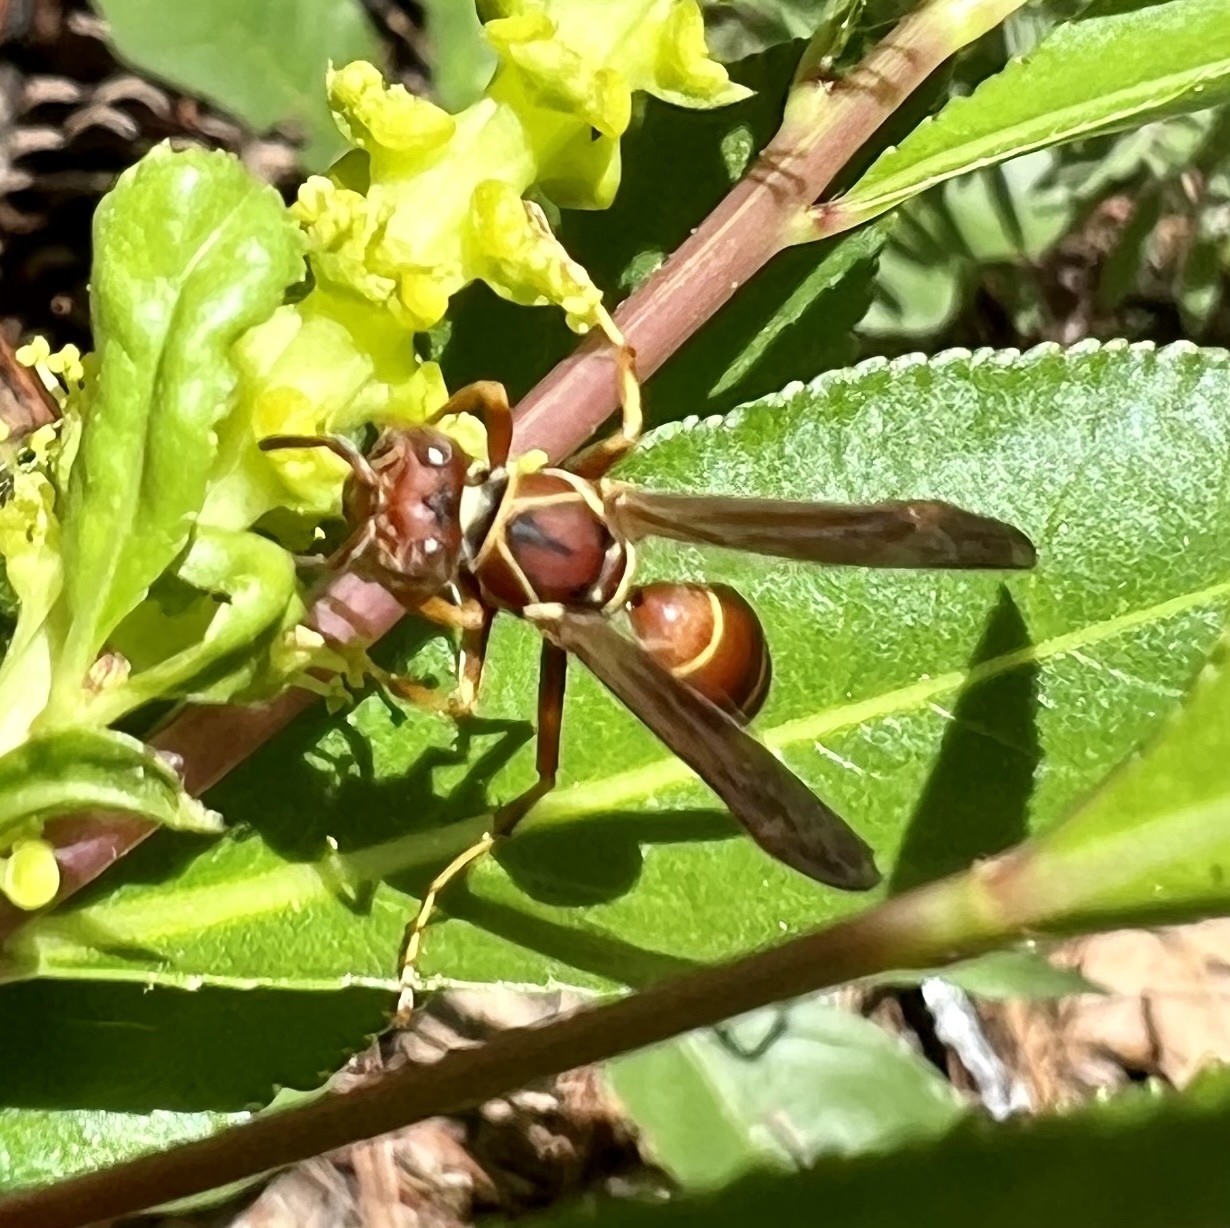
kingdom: Animalia
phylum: Arthropoda
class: Insecta
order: Hymenoptera
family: Eumenidae
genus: Polistes
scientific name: Polistes dorsalis
